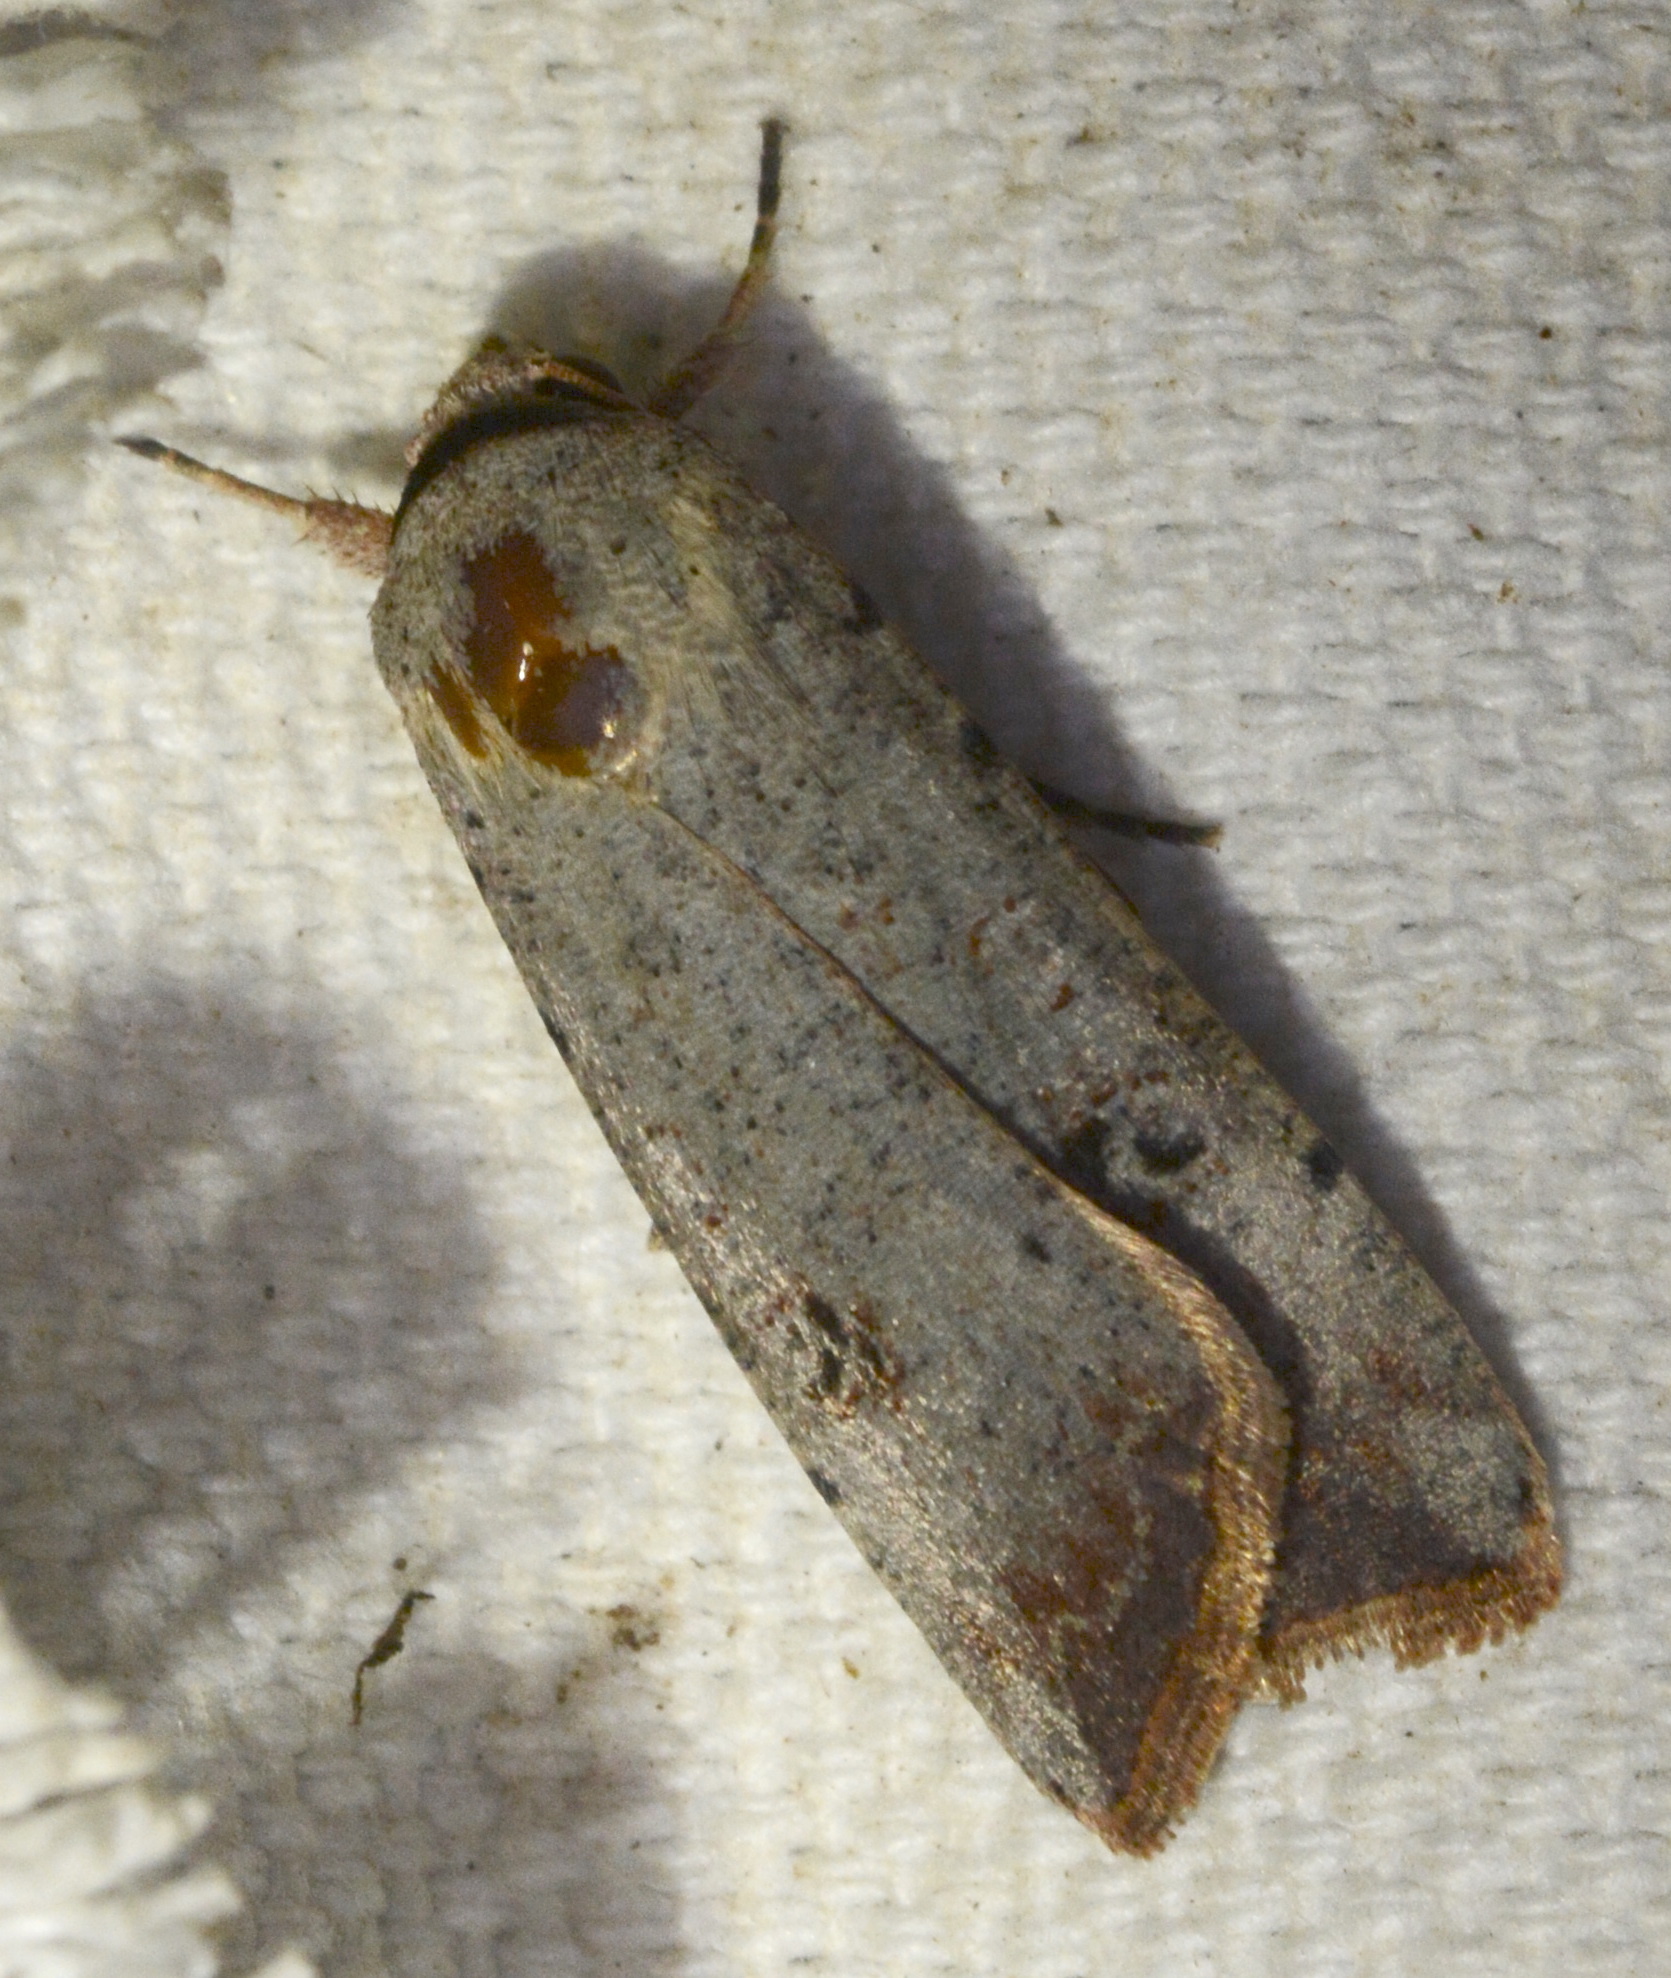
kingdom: Animalia
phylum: Arthropoda
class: Insecta
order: Lepidoptera
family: Noctuidae
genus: Anicla
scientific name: Anicla infecta
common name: Green cutworm
